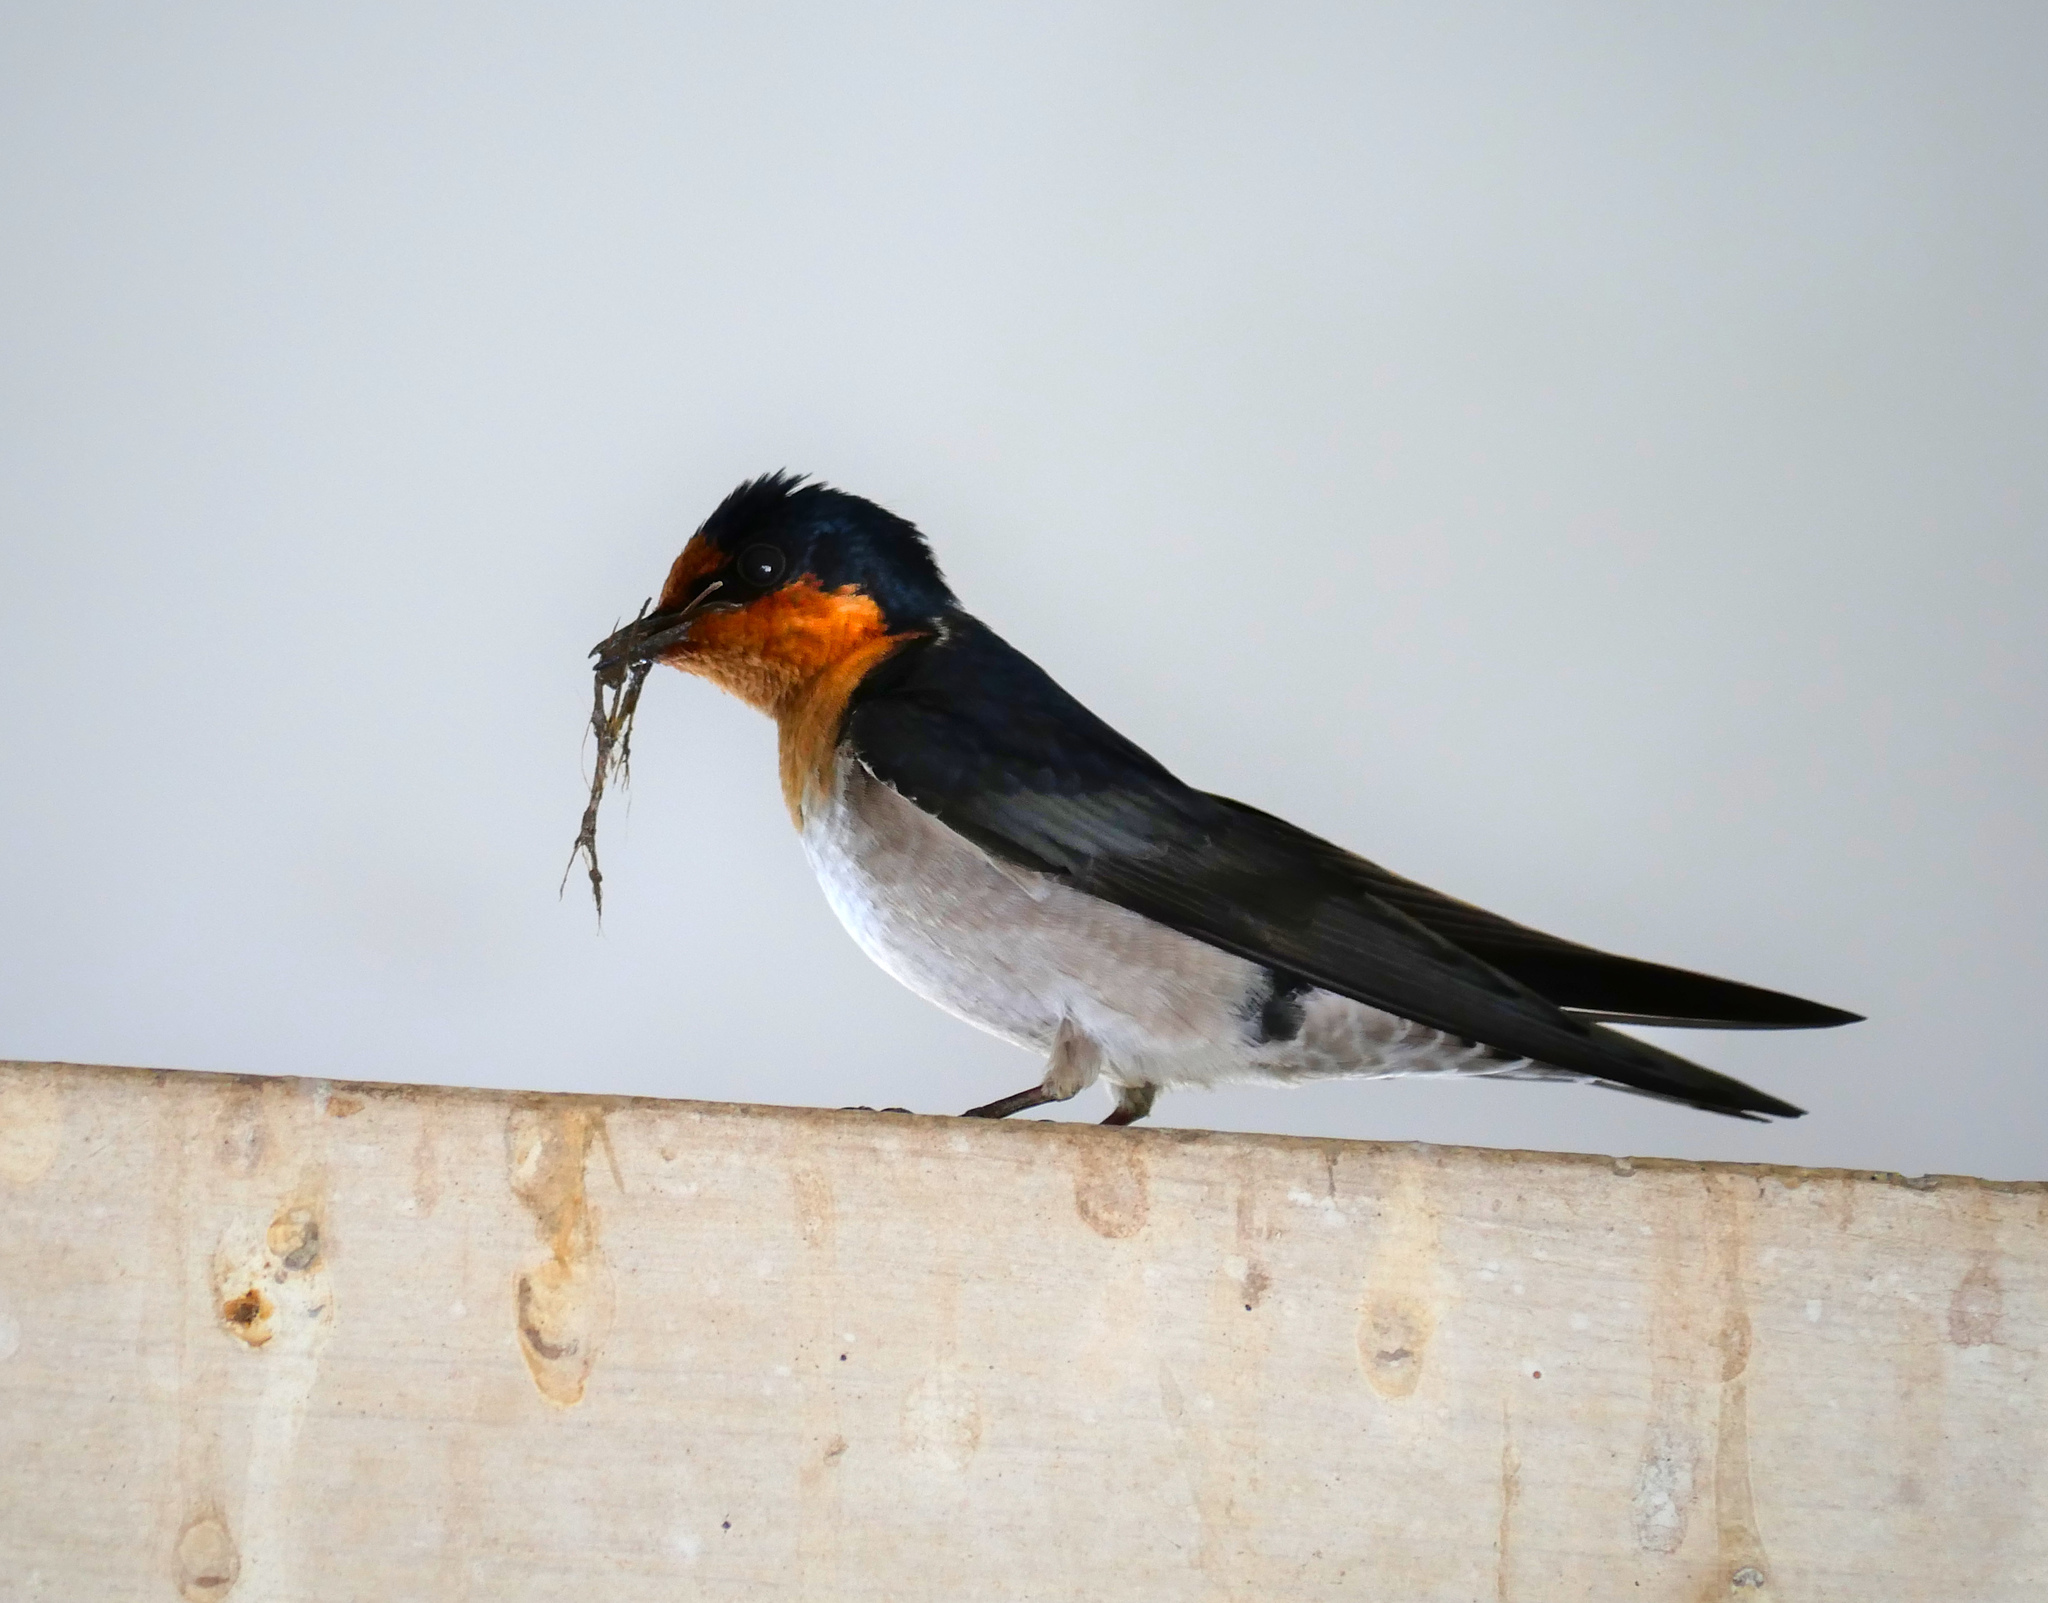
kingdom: Animalia
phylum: Chordata
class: Aves
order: Passeriformes
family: Hirundinidae
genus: Hirundo
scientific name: Hirundo tahitica
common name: Pacific swallow
